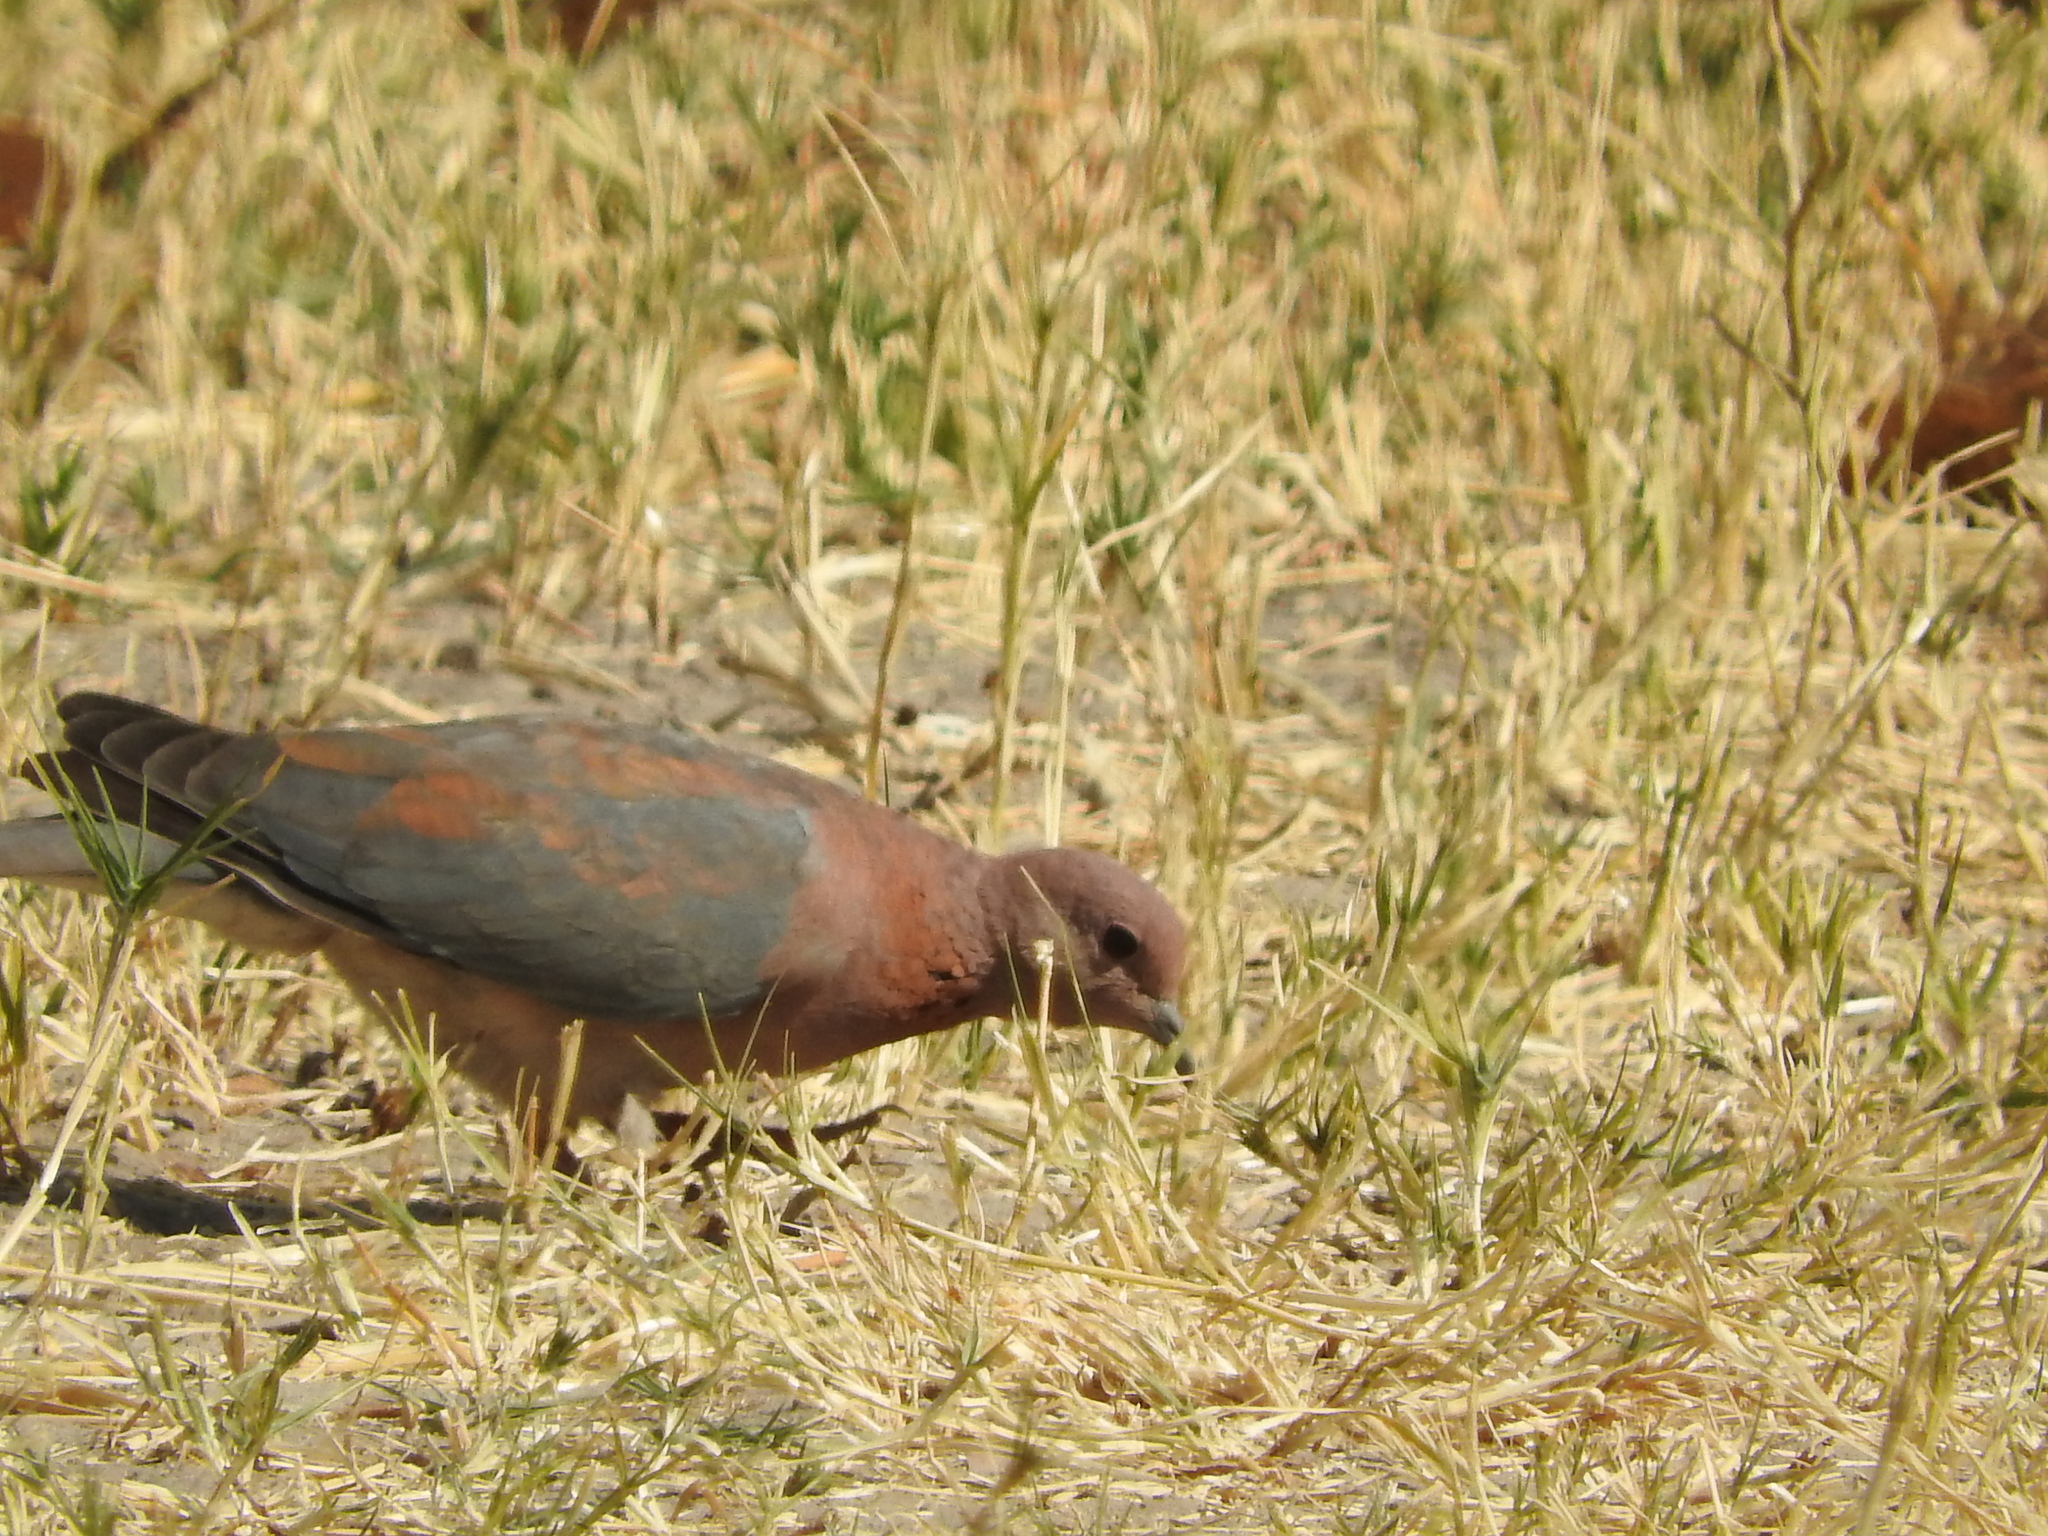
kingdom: Animalia
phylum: Chordata
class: Aves
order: Columbiformes
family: Columbidae
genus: Spilopelia
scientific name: Spilopelia senegalensis
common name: Laughing dove
